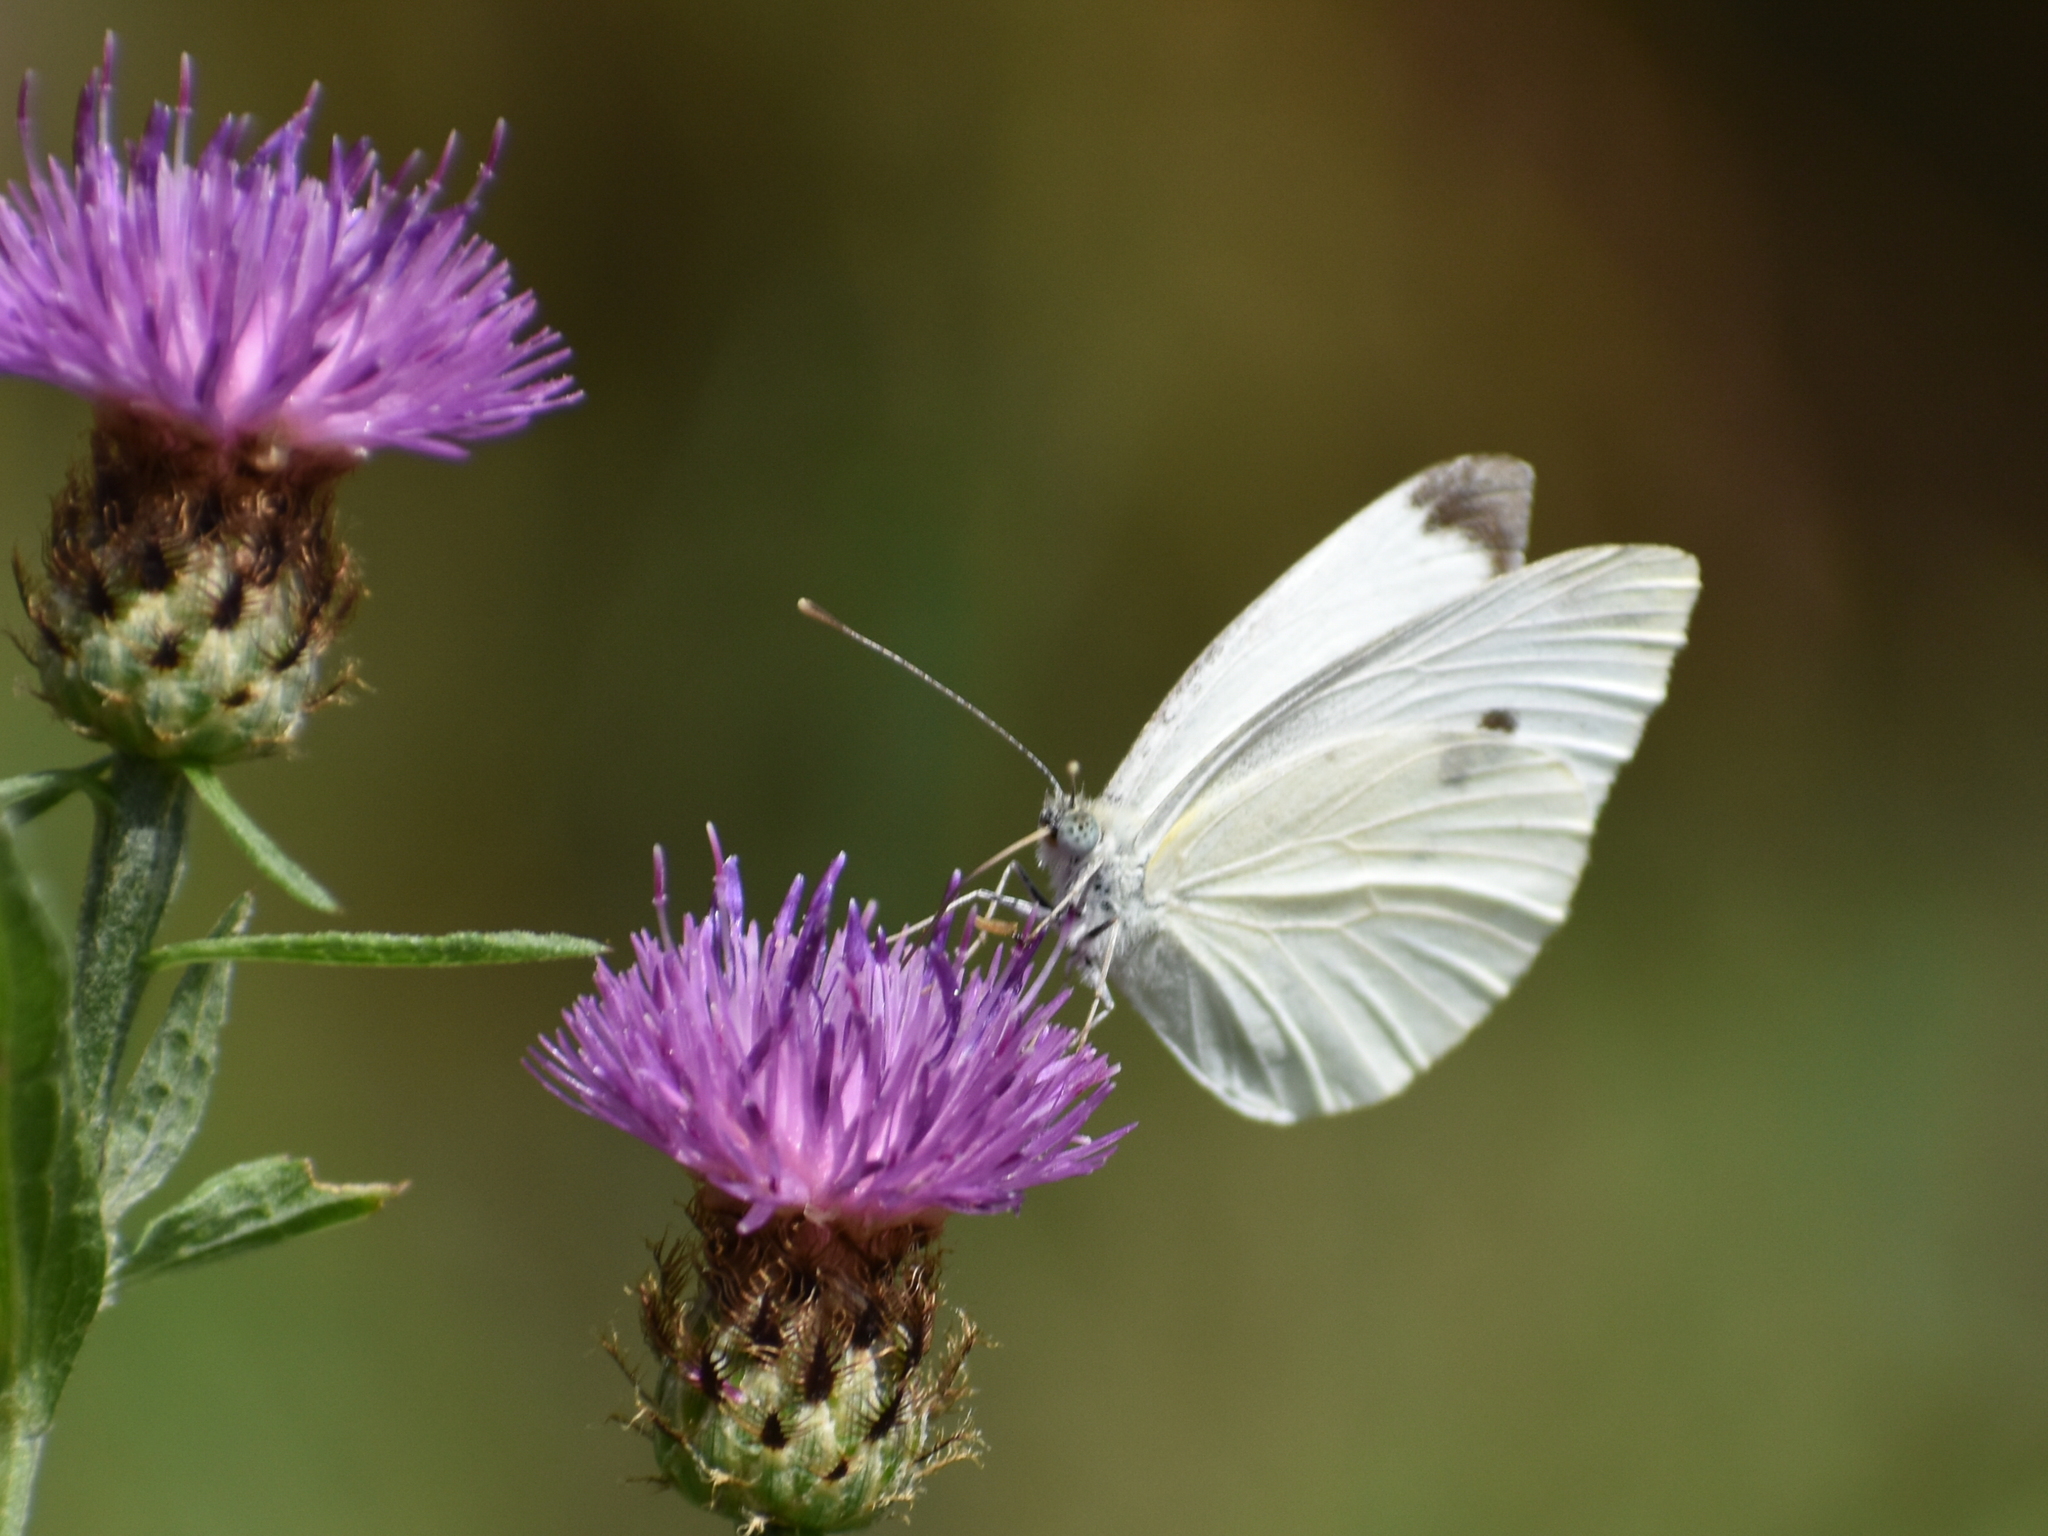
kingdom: Animalia
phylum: Arthropoda
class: Insecta
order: Lepidoptera
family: Pieridae
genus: Pieris
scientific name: Pieris rapae
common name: Small white
